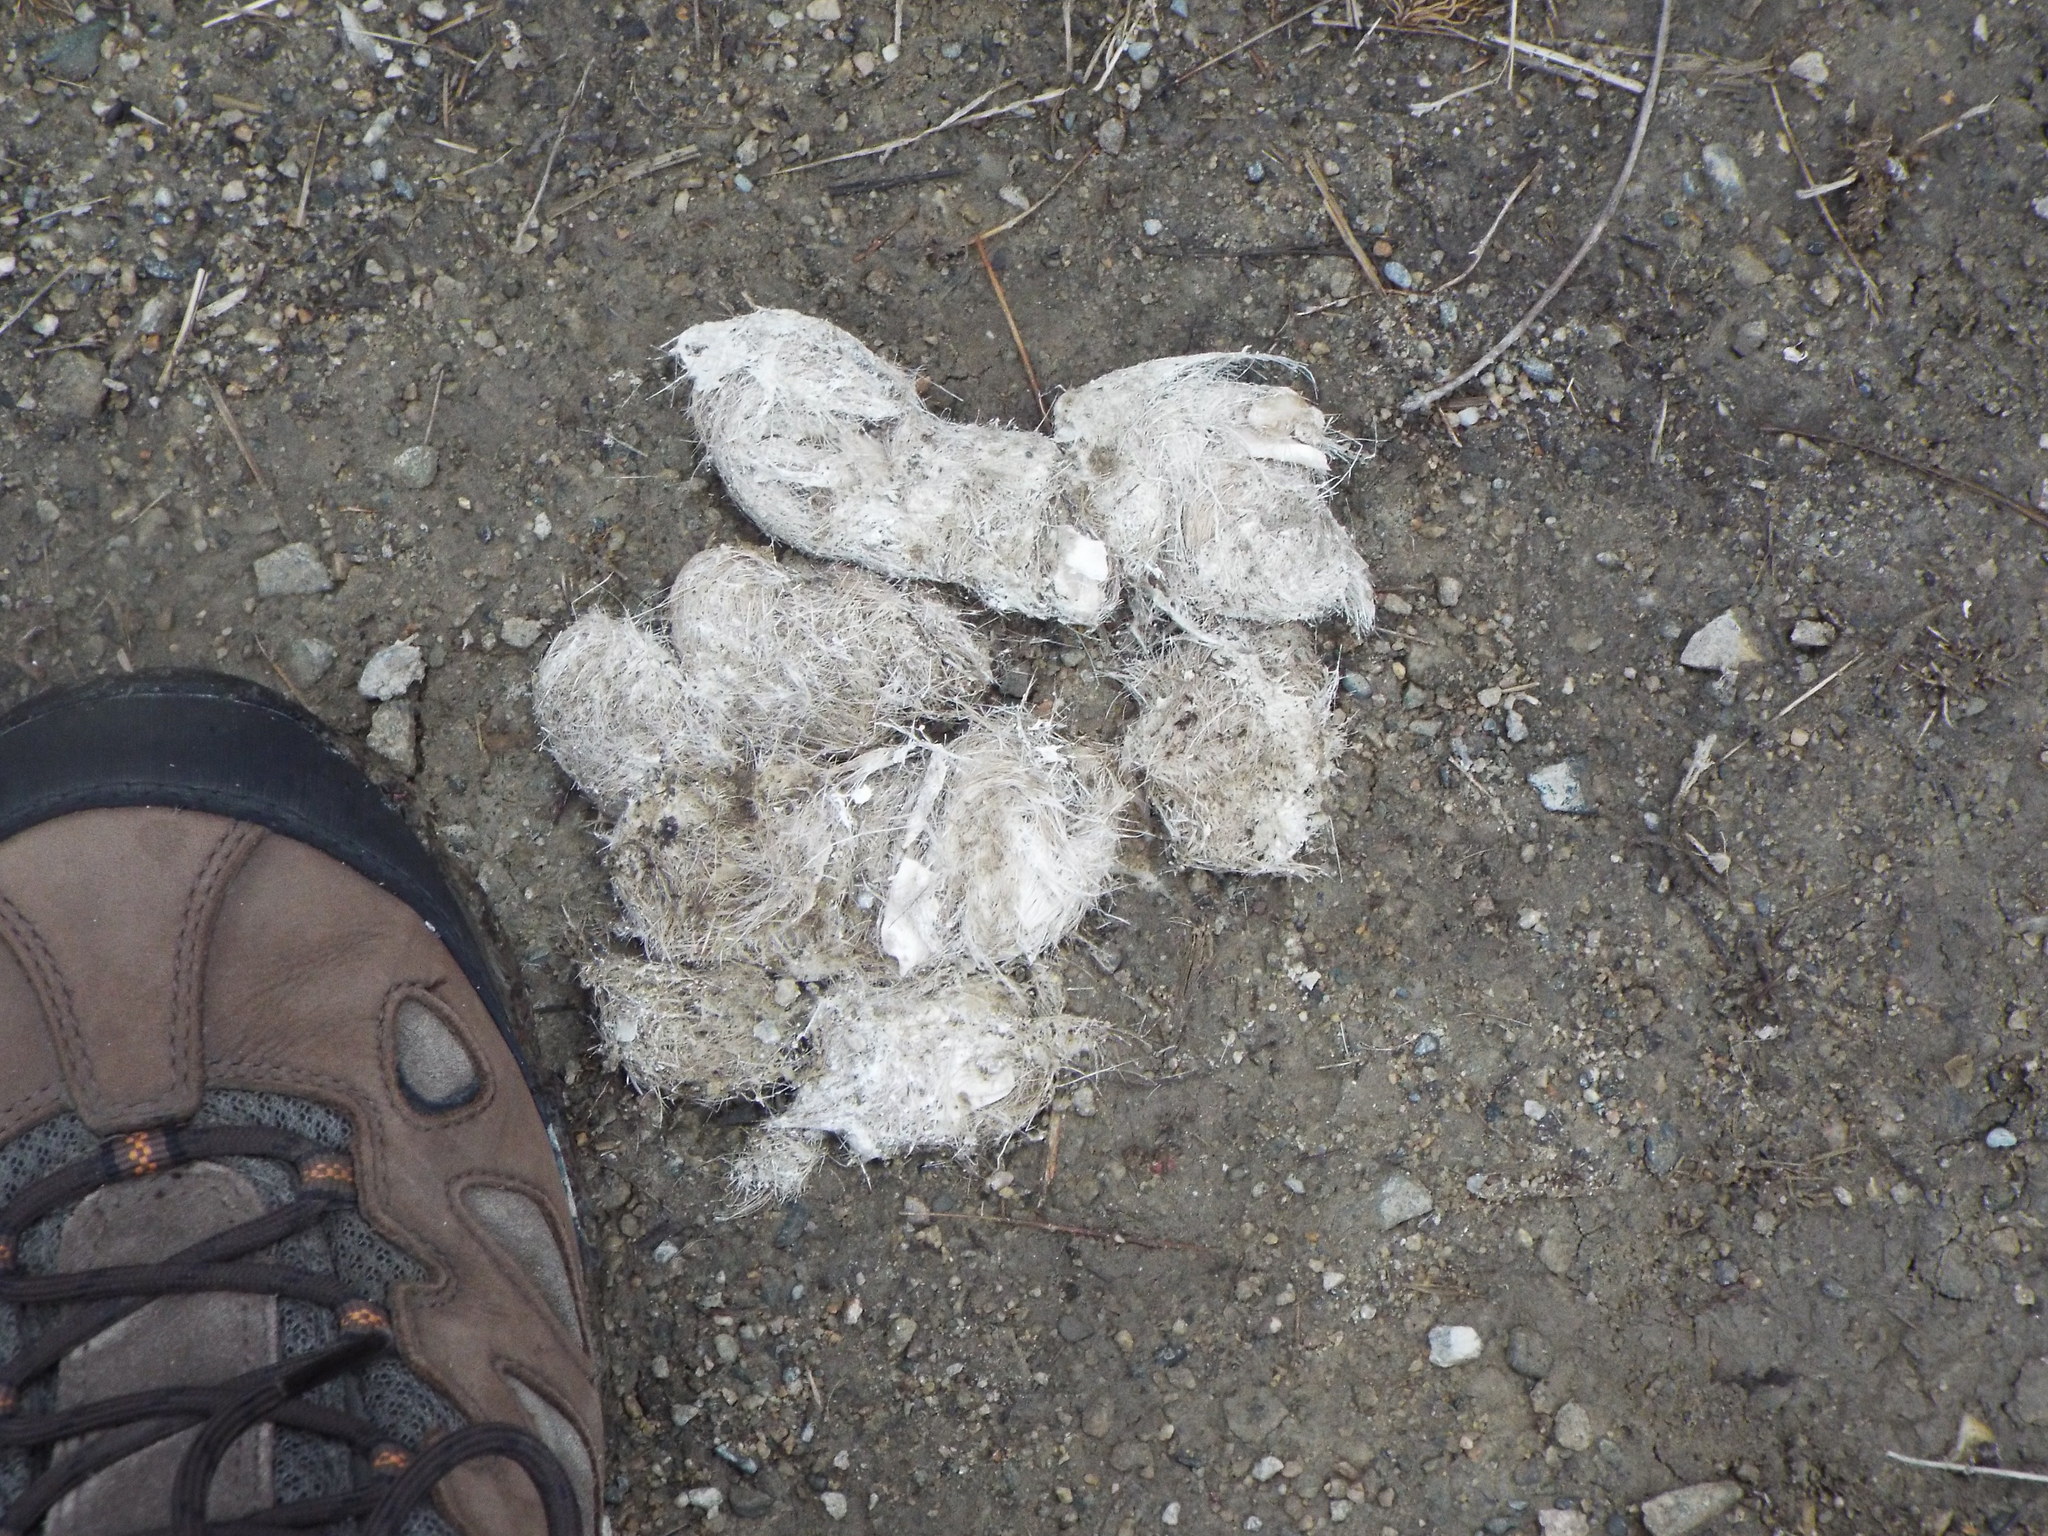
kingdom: Animalia
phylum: Chordata
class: Mammalia
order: Carnivora
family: Canidae
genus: Canis
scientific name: Canis latrans
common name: Coyote
